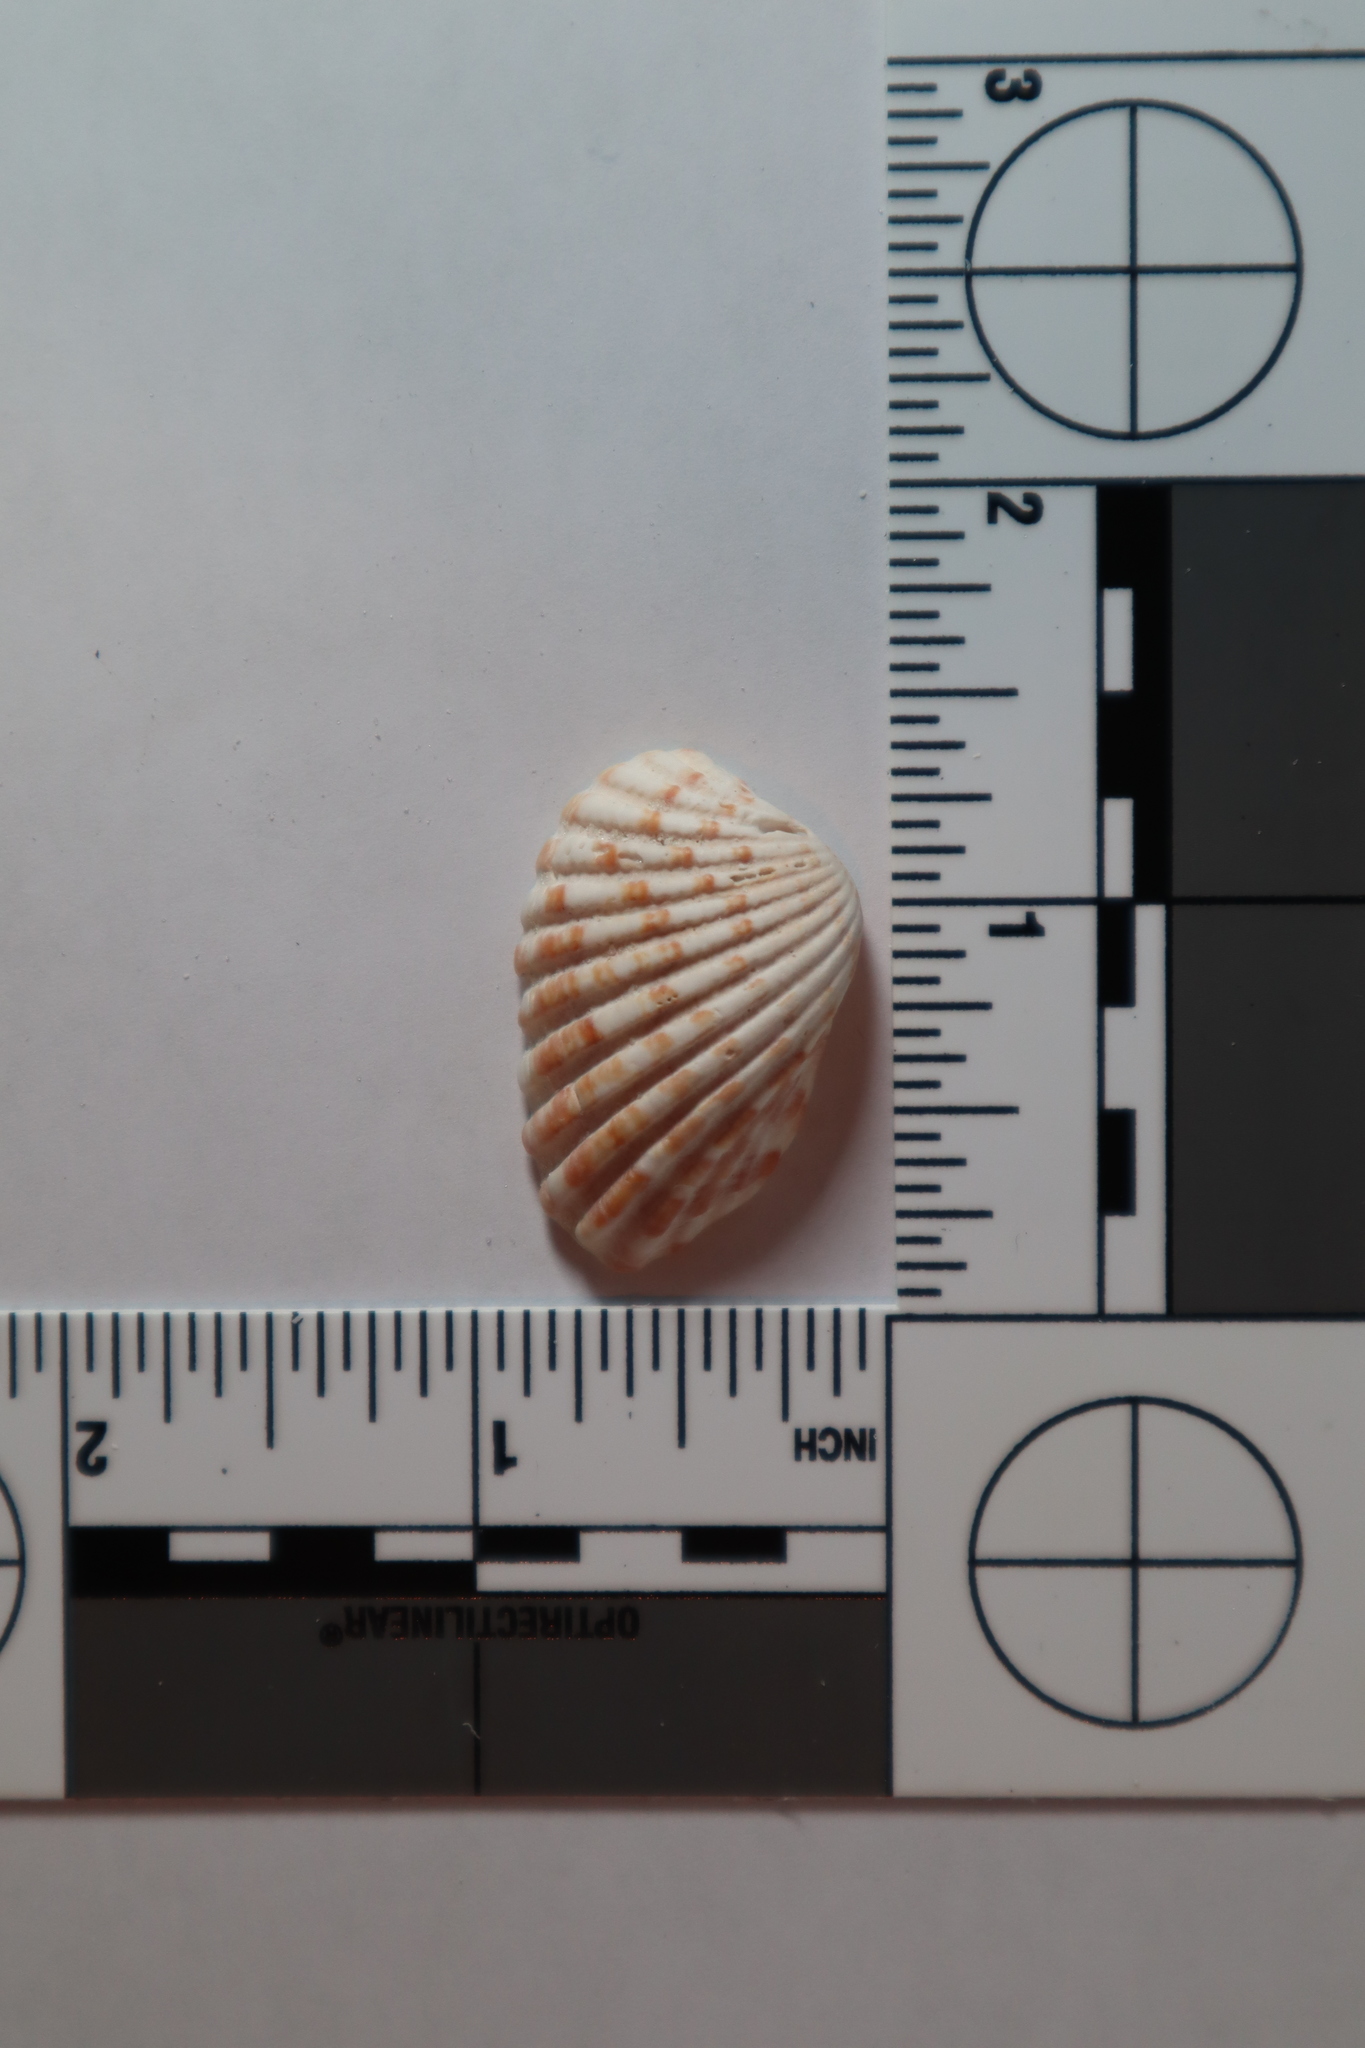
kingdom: Animalia
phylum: Mollusca
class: Bivalvia
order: Carditida
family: Carditidae
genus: Cardites
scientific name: Cardites floridanus
